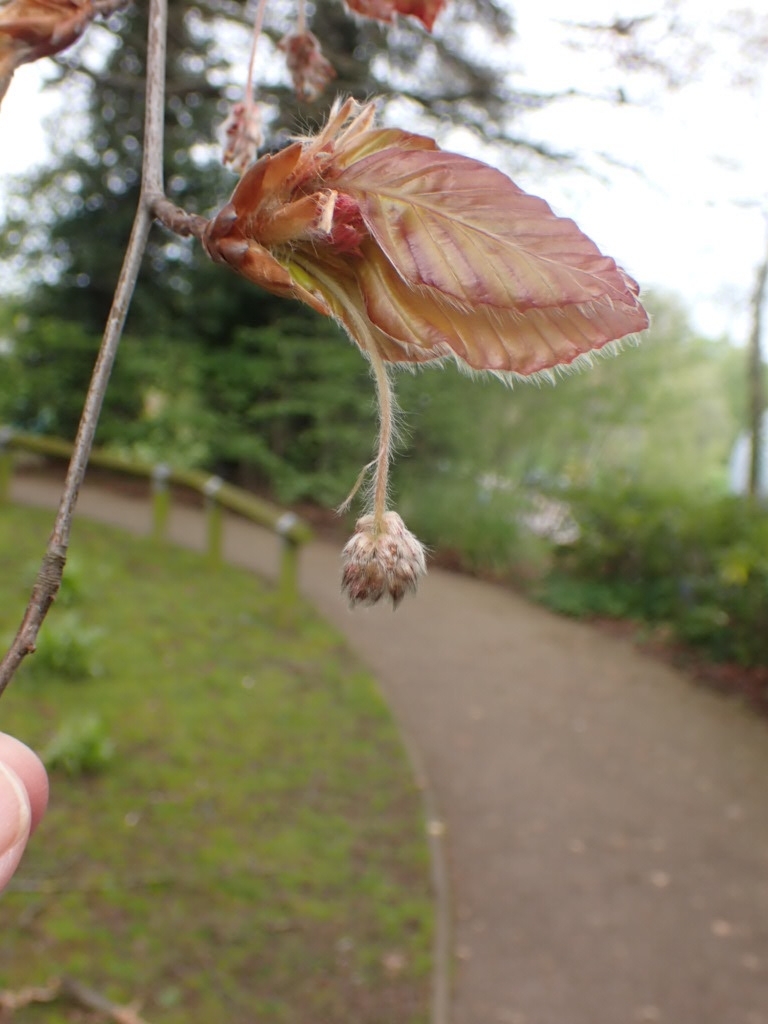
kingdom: Plantae
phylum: Tracheophyta
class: Magnoliopsida
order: Fagales
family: Fagaceae
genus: Fagus
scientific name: Fagus sylvatica
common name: Beech
